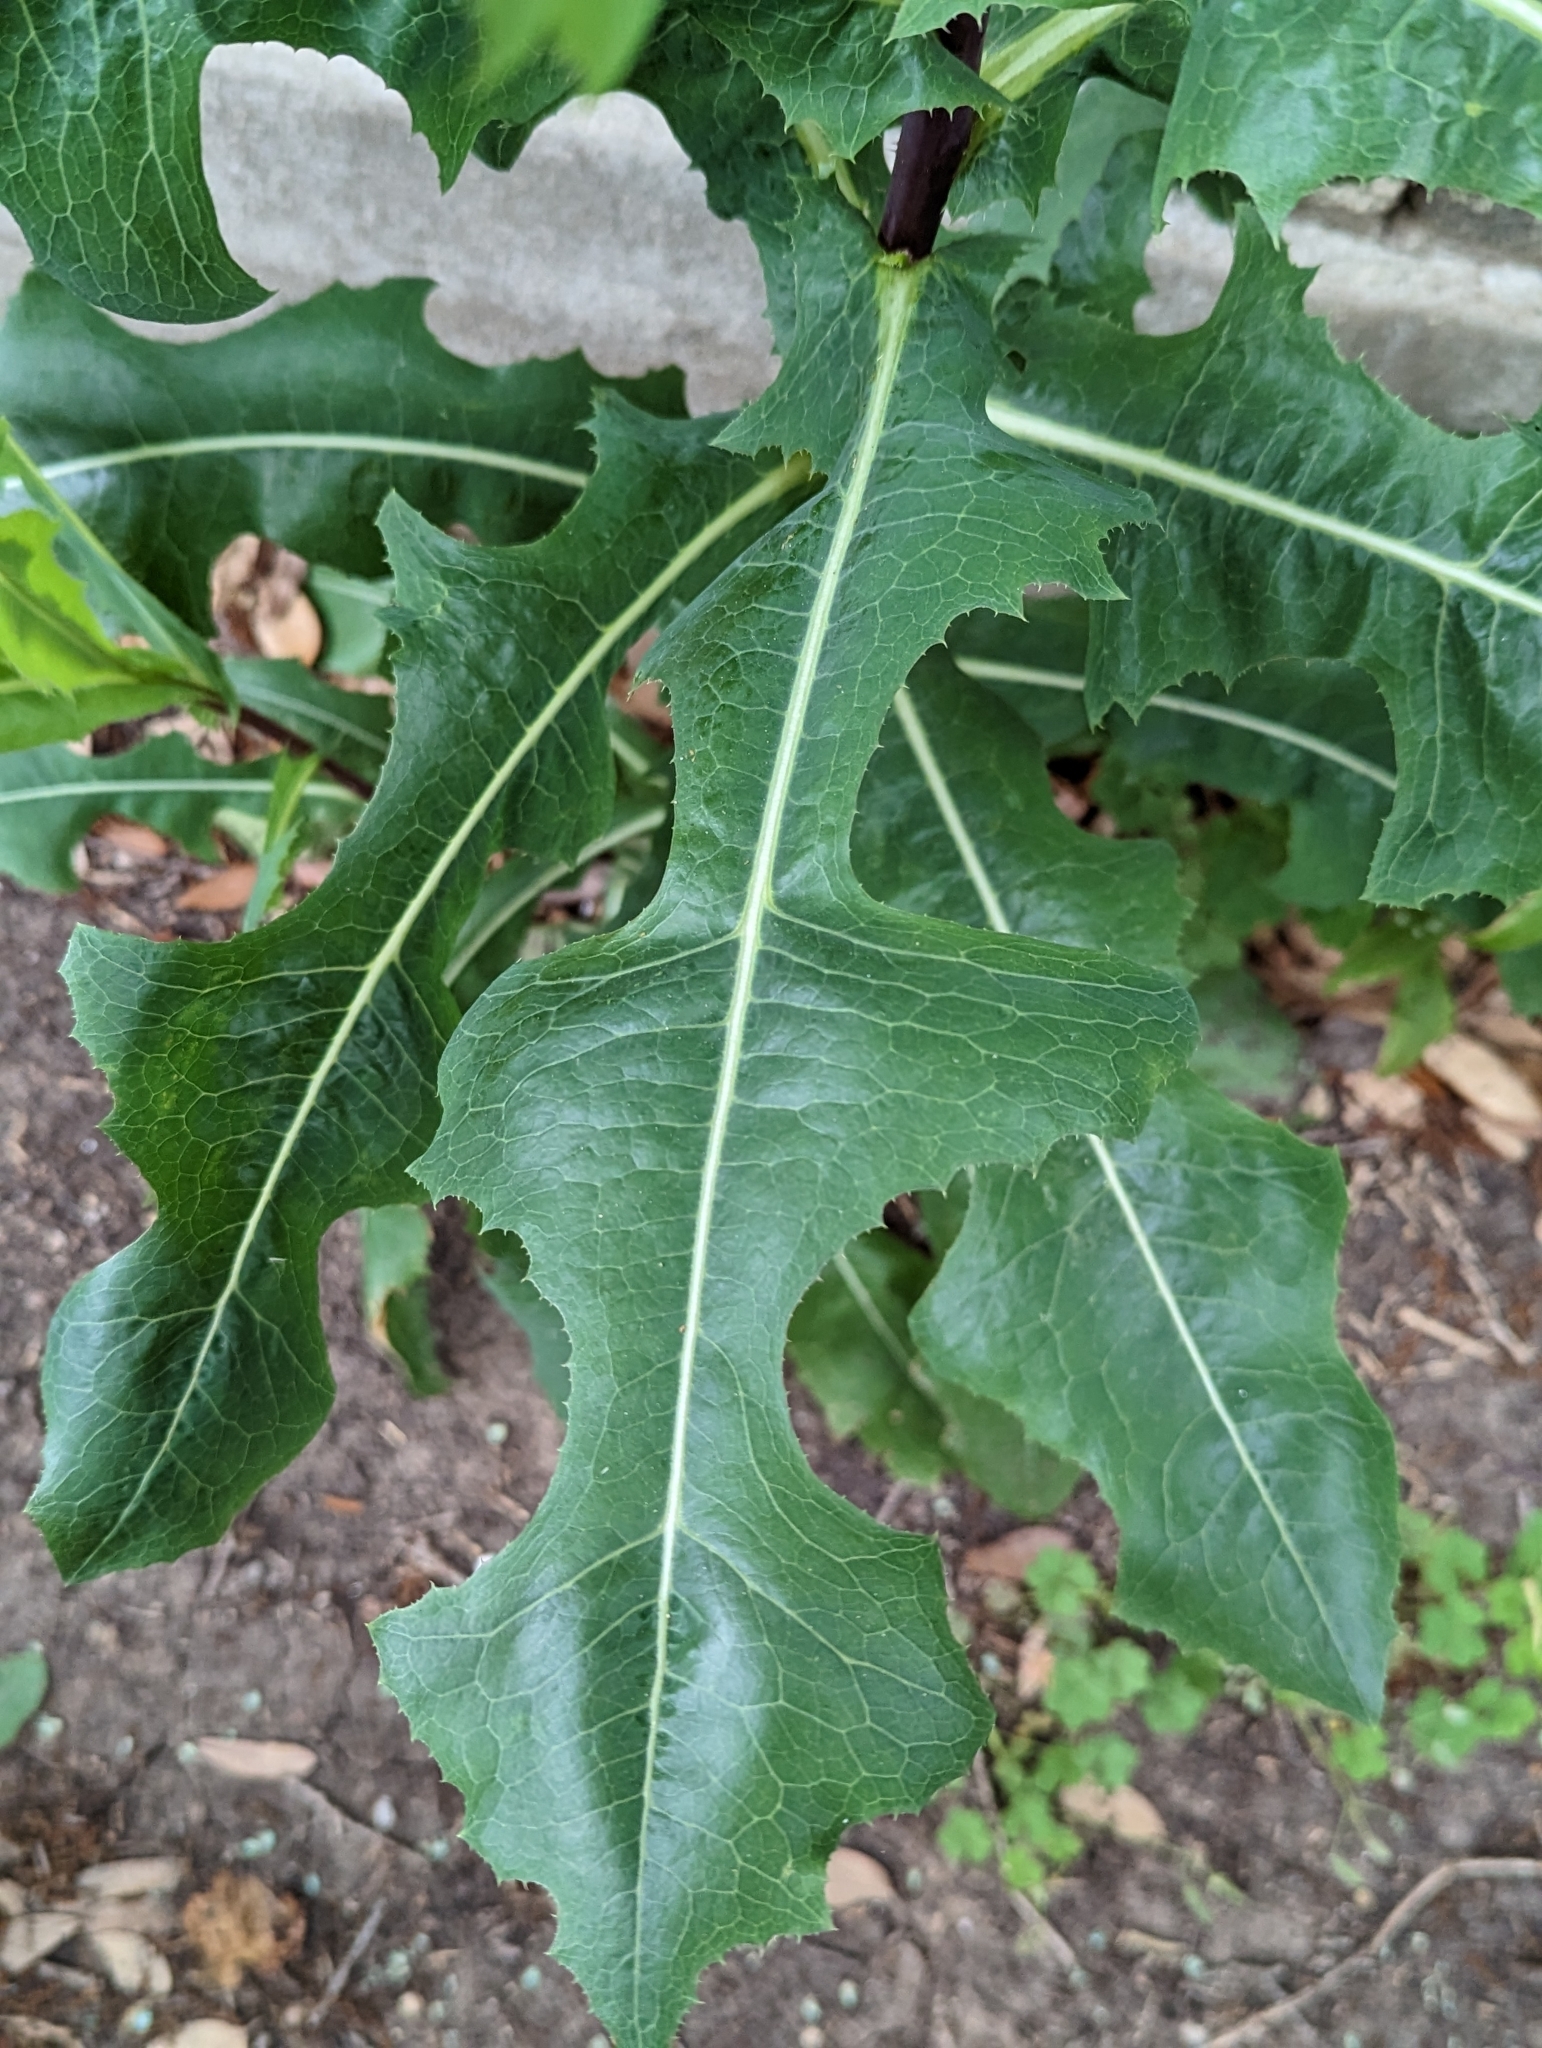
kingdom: Plantae
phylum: Tracheophyta
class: Magnoliopsida
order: Asterales
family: Asteraceae
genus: Lactuca
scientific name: Lactuca serriola
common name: Prickly lettuce
